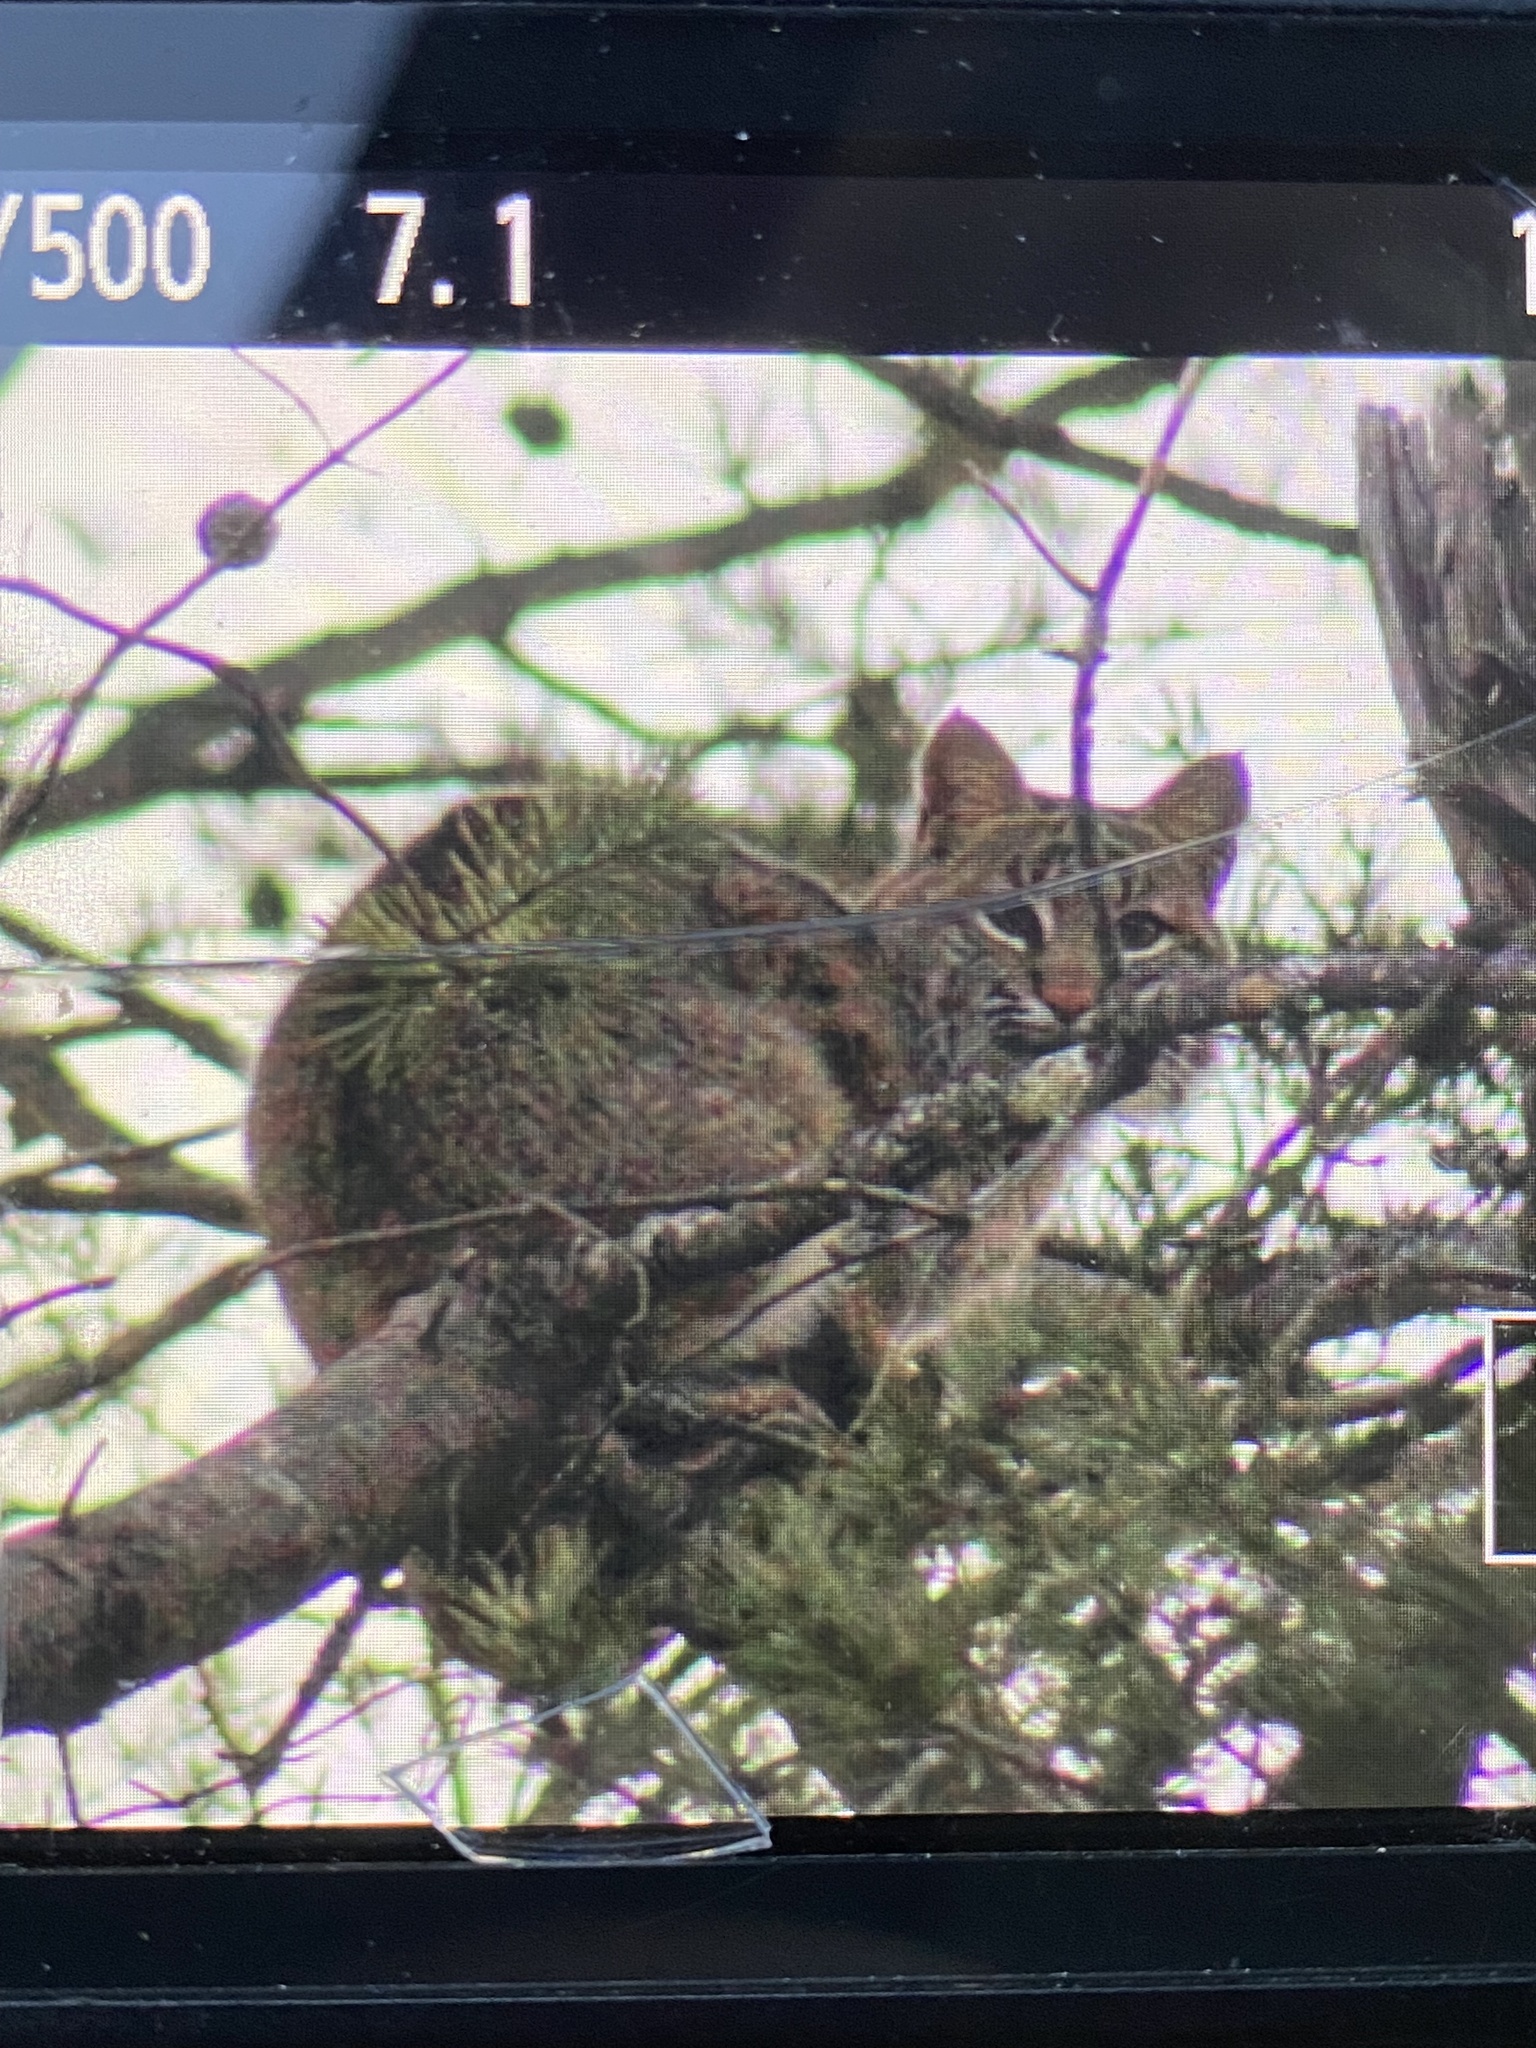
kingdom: Animalia
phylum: Chordata
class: Mammalia
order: Carnivora
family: Felidae
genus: Lynx
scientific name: Lynx rufus
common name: Bobcat
